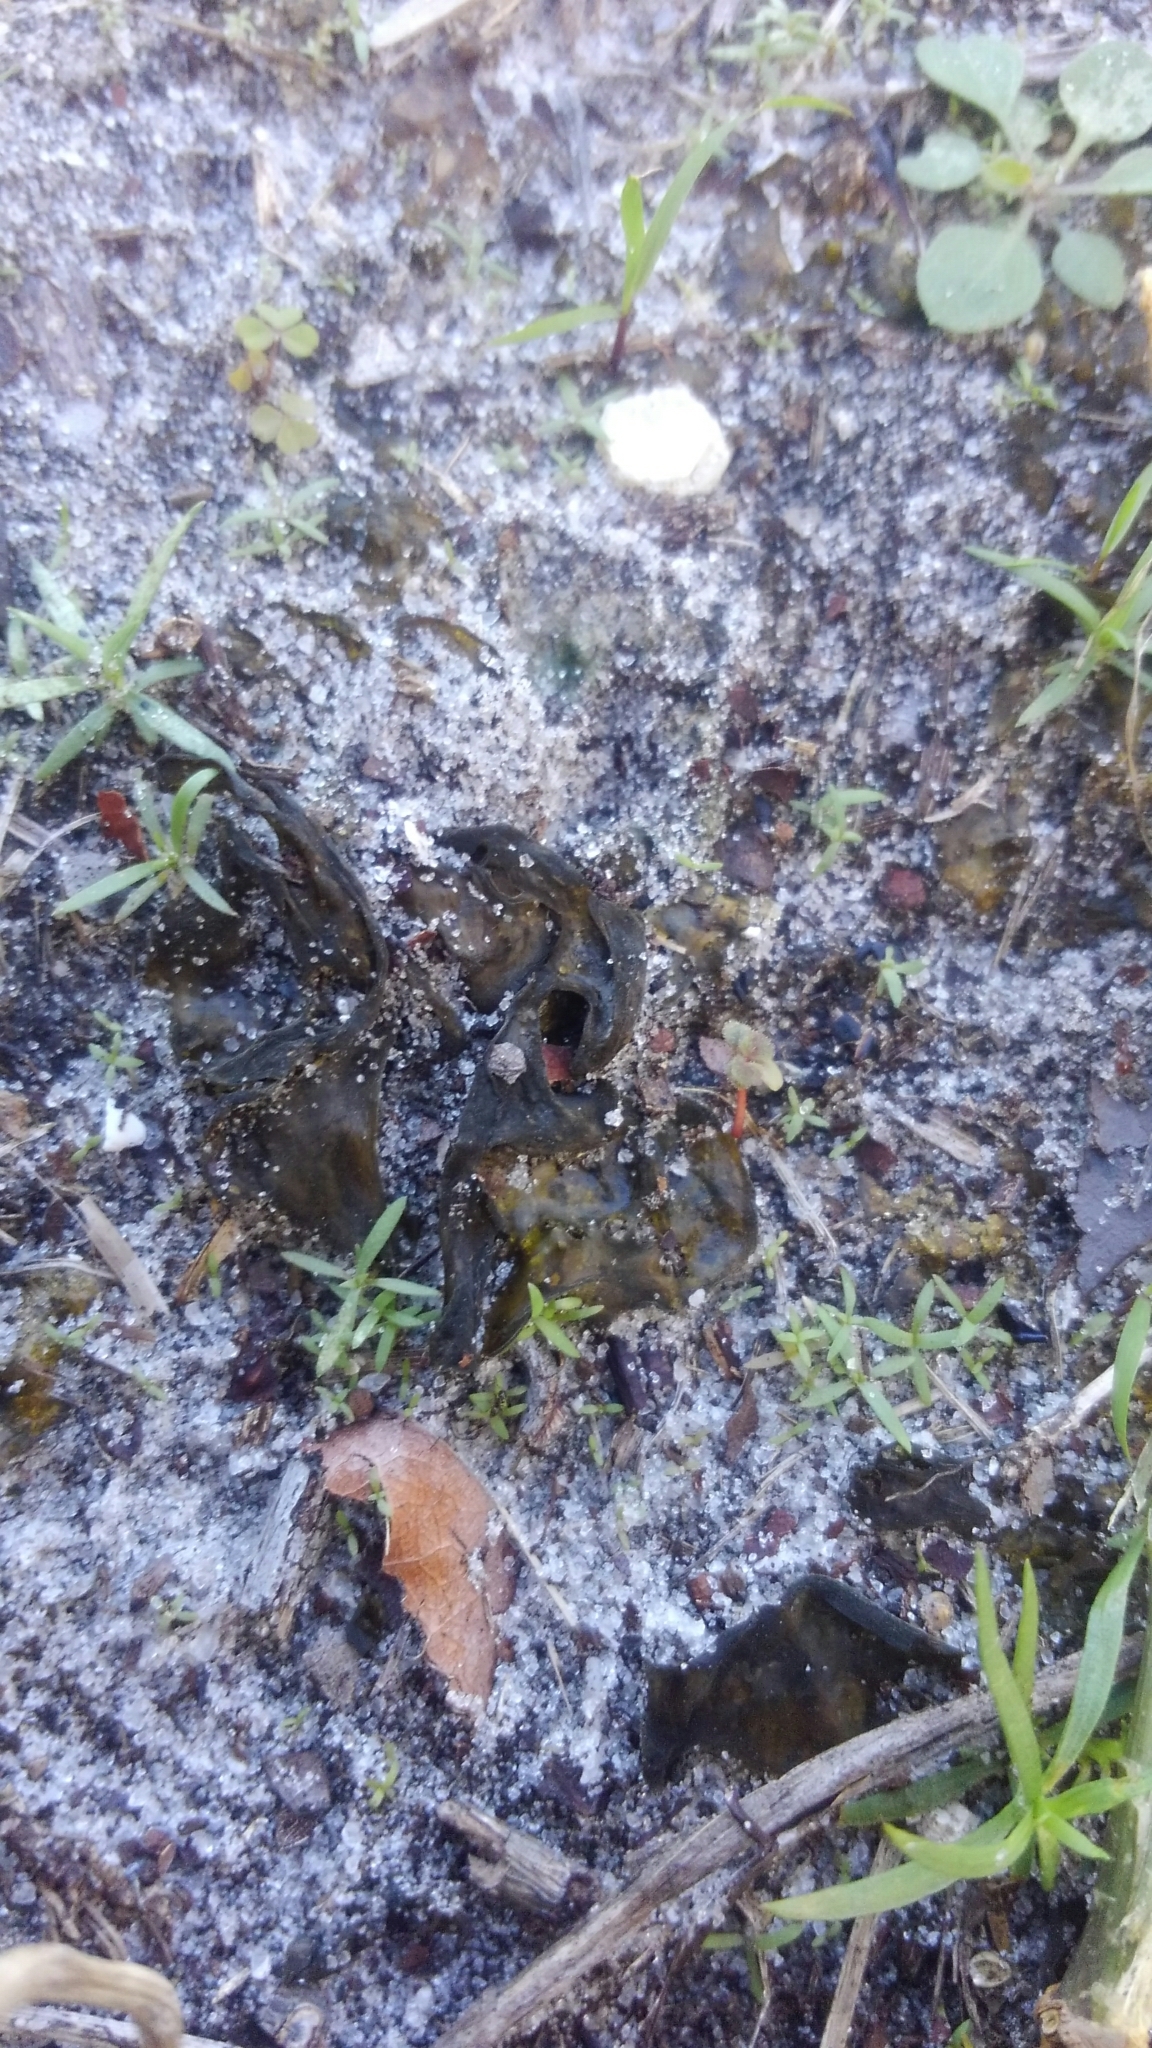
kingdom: Bacteria
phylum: Cyanobacteria
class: Cyanobacteriia
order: Cyanobacteriales
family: Nostocaceae
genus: Nostoc
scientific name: Nostoc commune
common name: Star jelly
